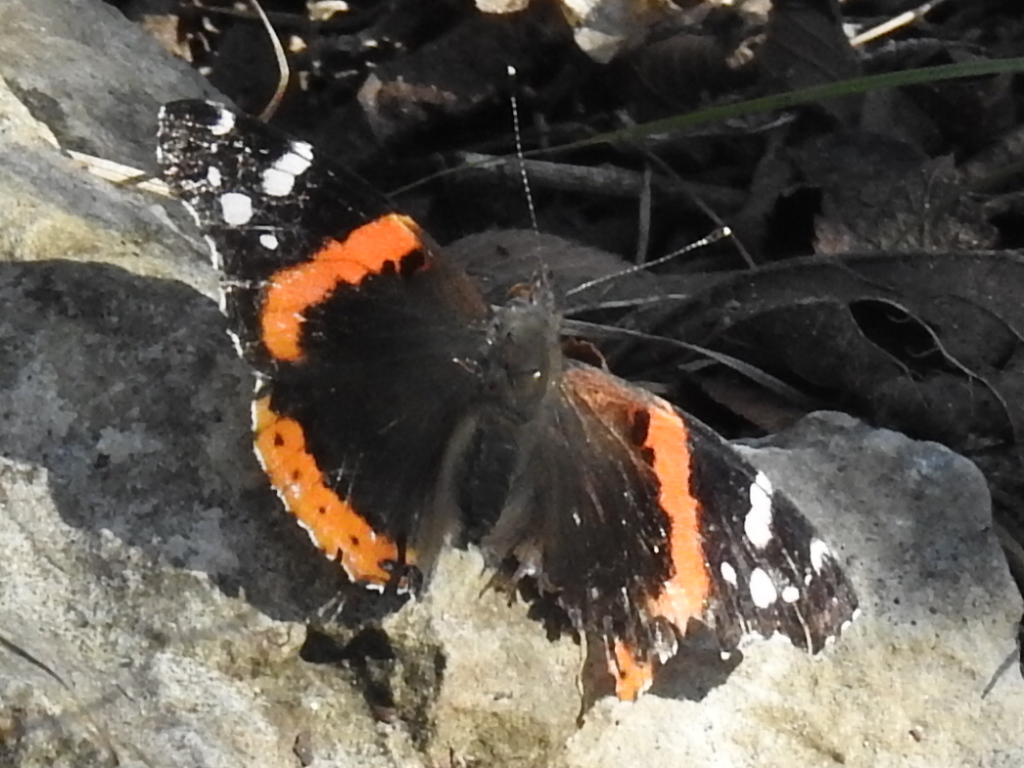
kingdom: Animalia
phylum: Arthropoda
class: Insecta
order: Lepidoptera
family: Nymphalidae
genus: Vanessa
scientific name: Vanessa atalanta
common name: Red admiral
